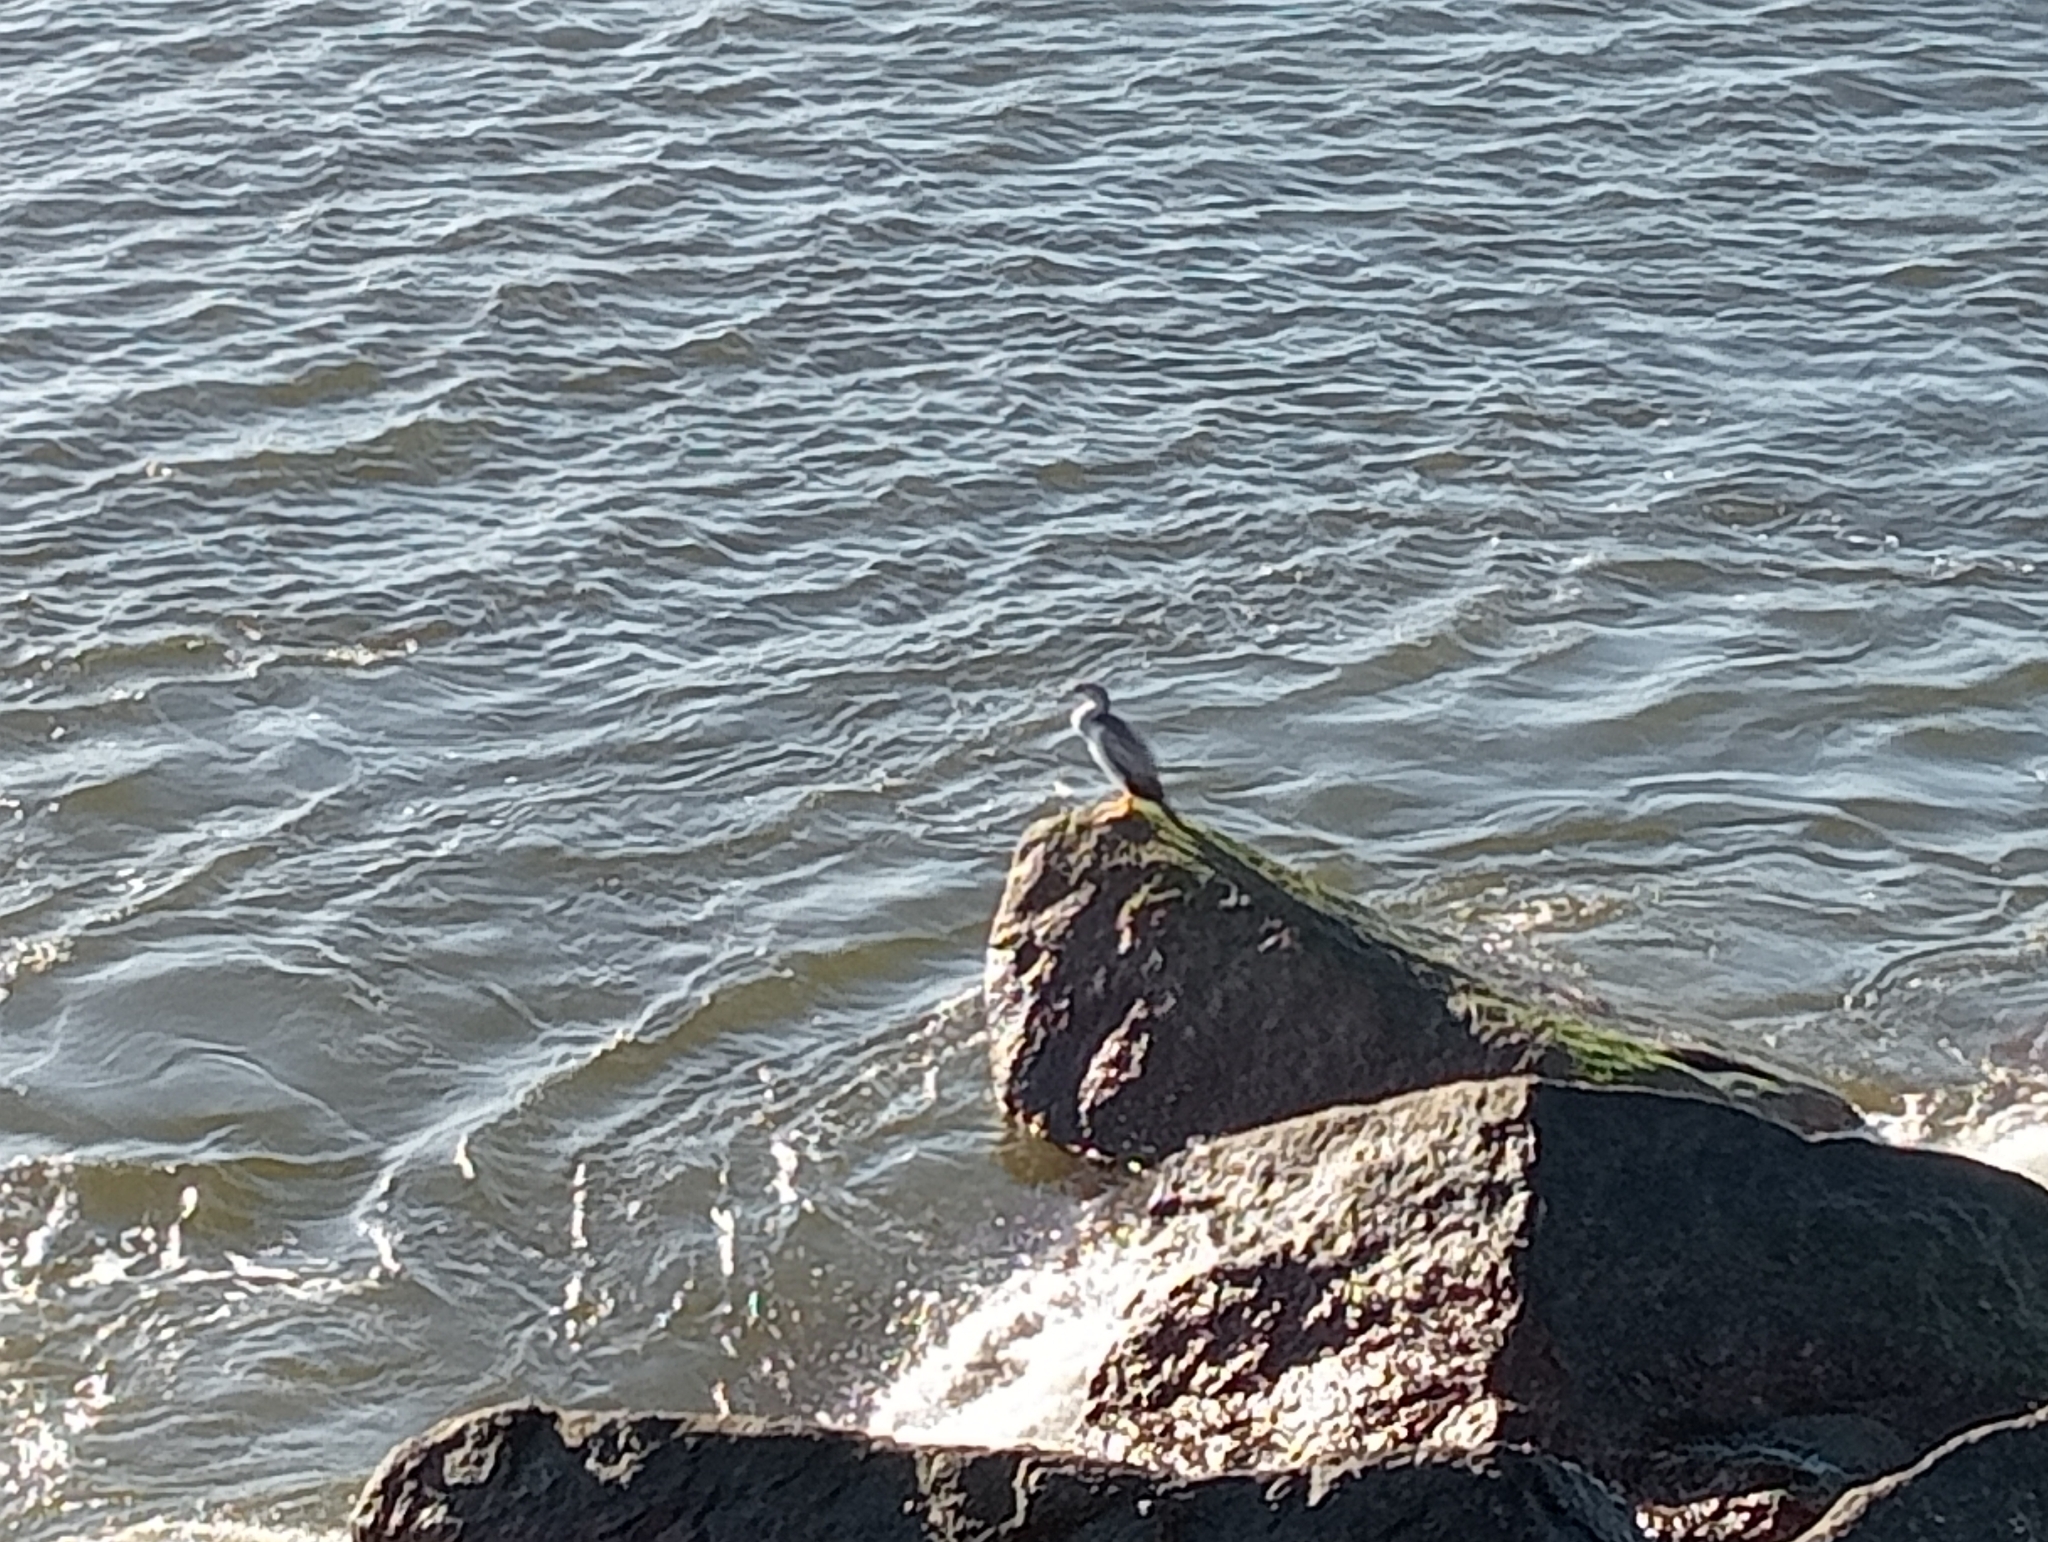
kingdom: Animalia
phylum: Chordata
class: Aves
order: Suliformes
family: Phalacrocoracidae
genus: Phalacrocorax
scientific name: Phalacrocorax punctatus
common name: Spotted shag
